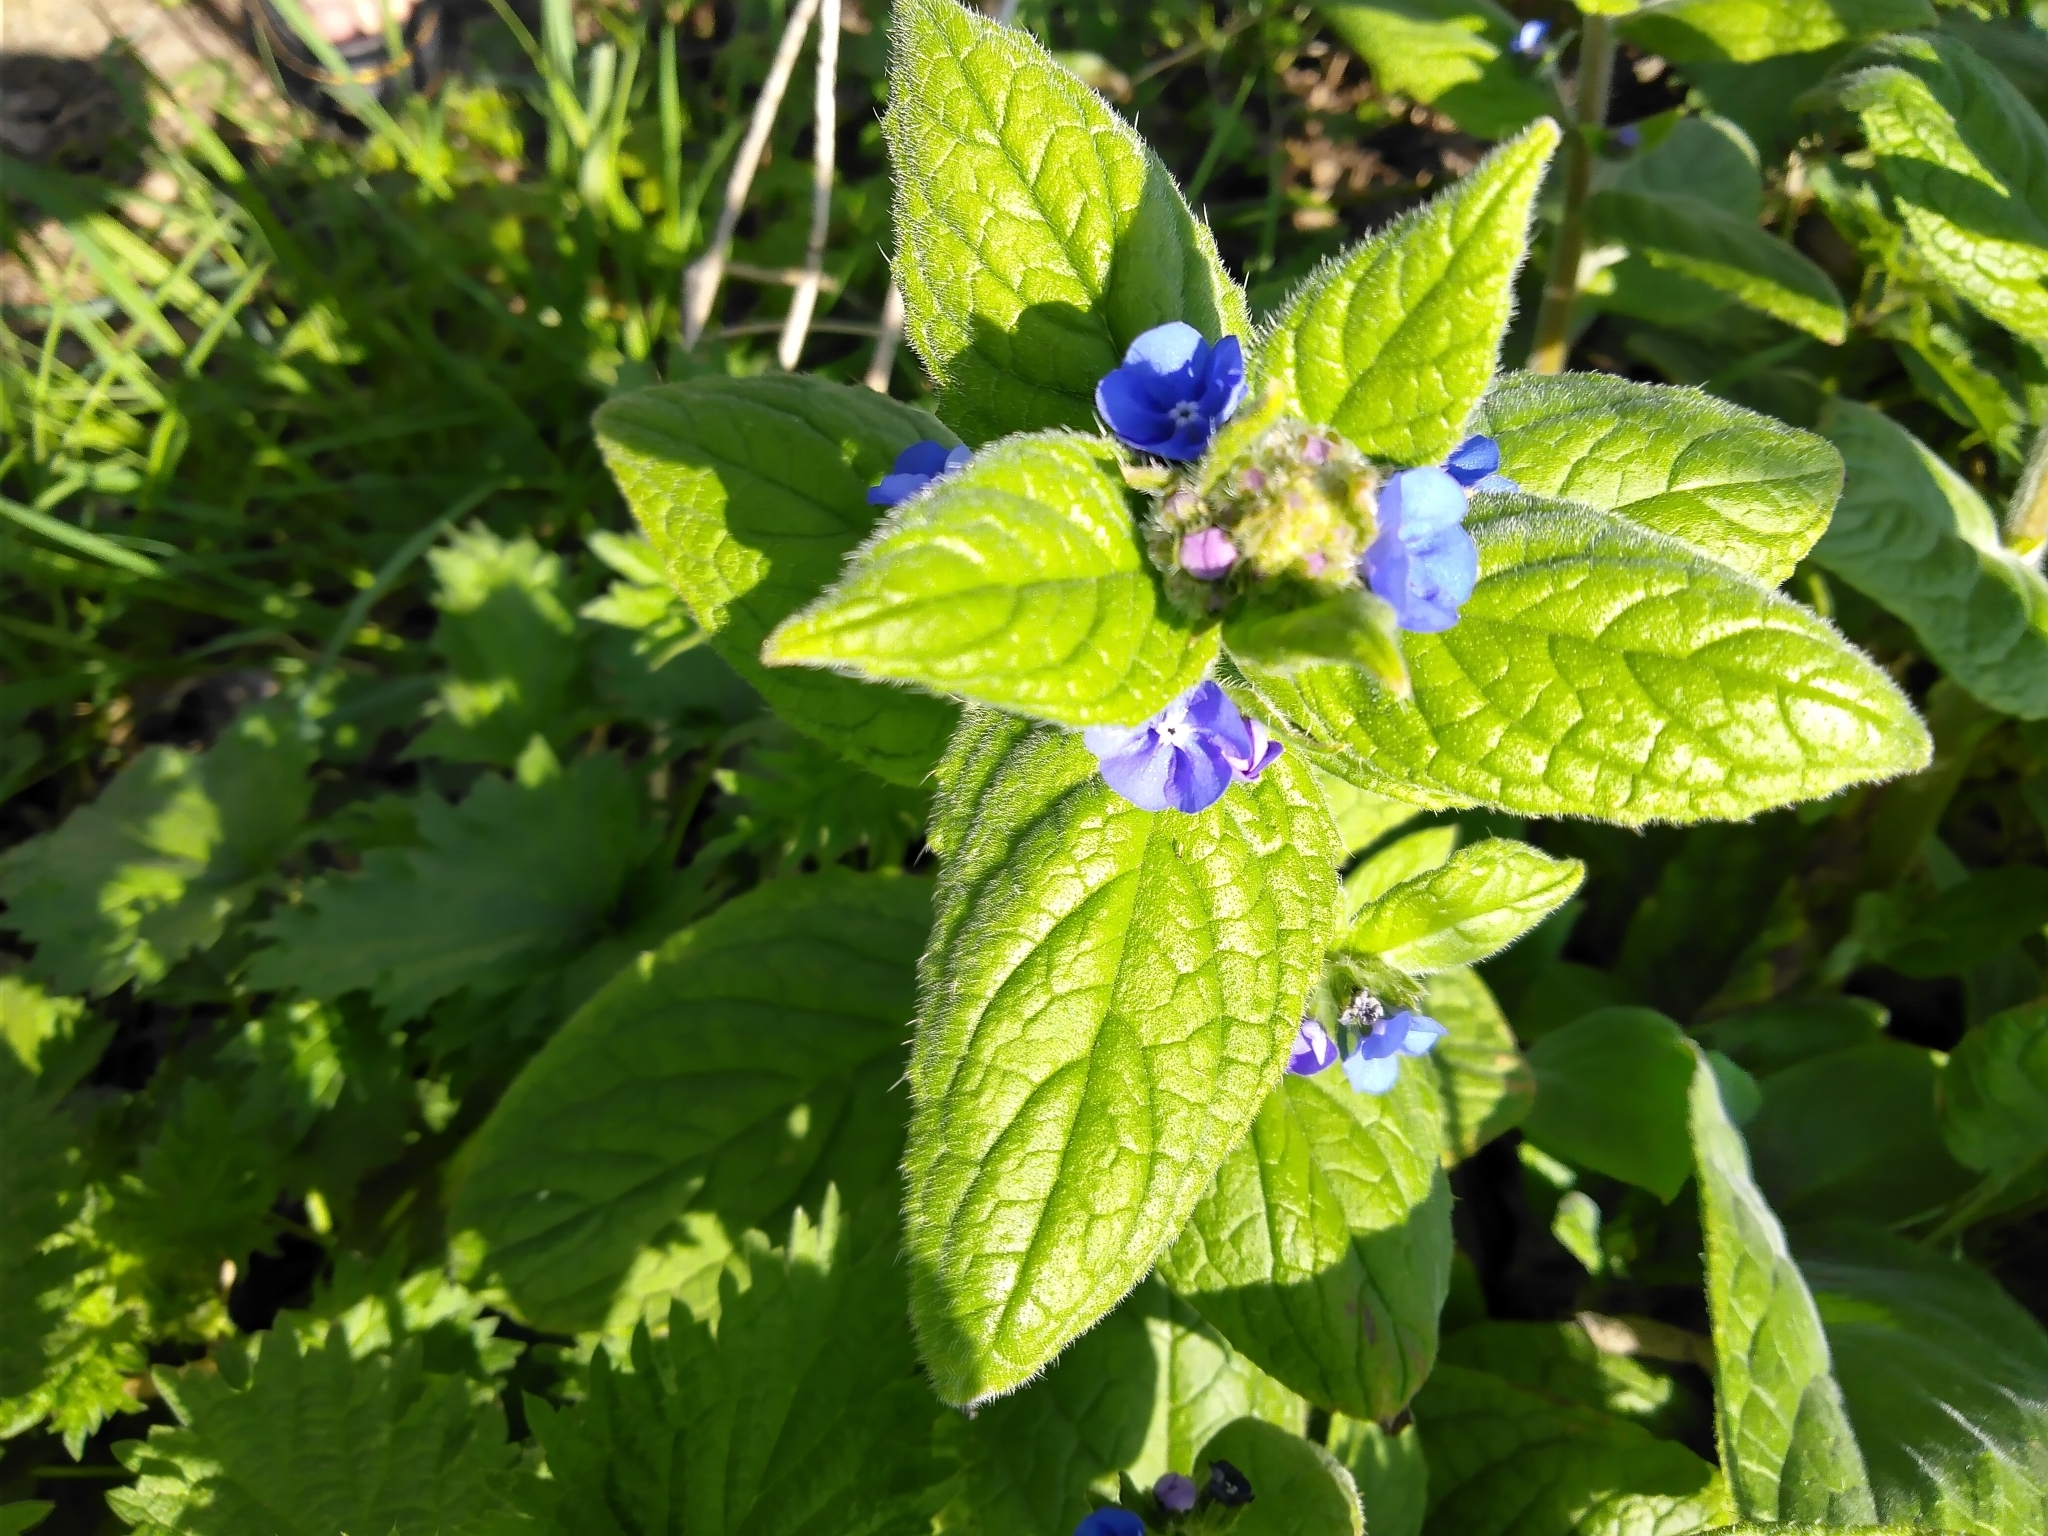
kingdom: Plantae
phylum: Tracheophyta
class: Magnoliopsida
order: Boraginales
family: Boraginaceae
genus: Pentaglottis
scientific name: Pentaglottis sempervirens
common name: Green alkanet
